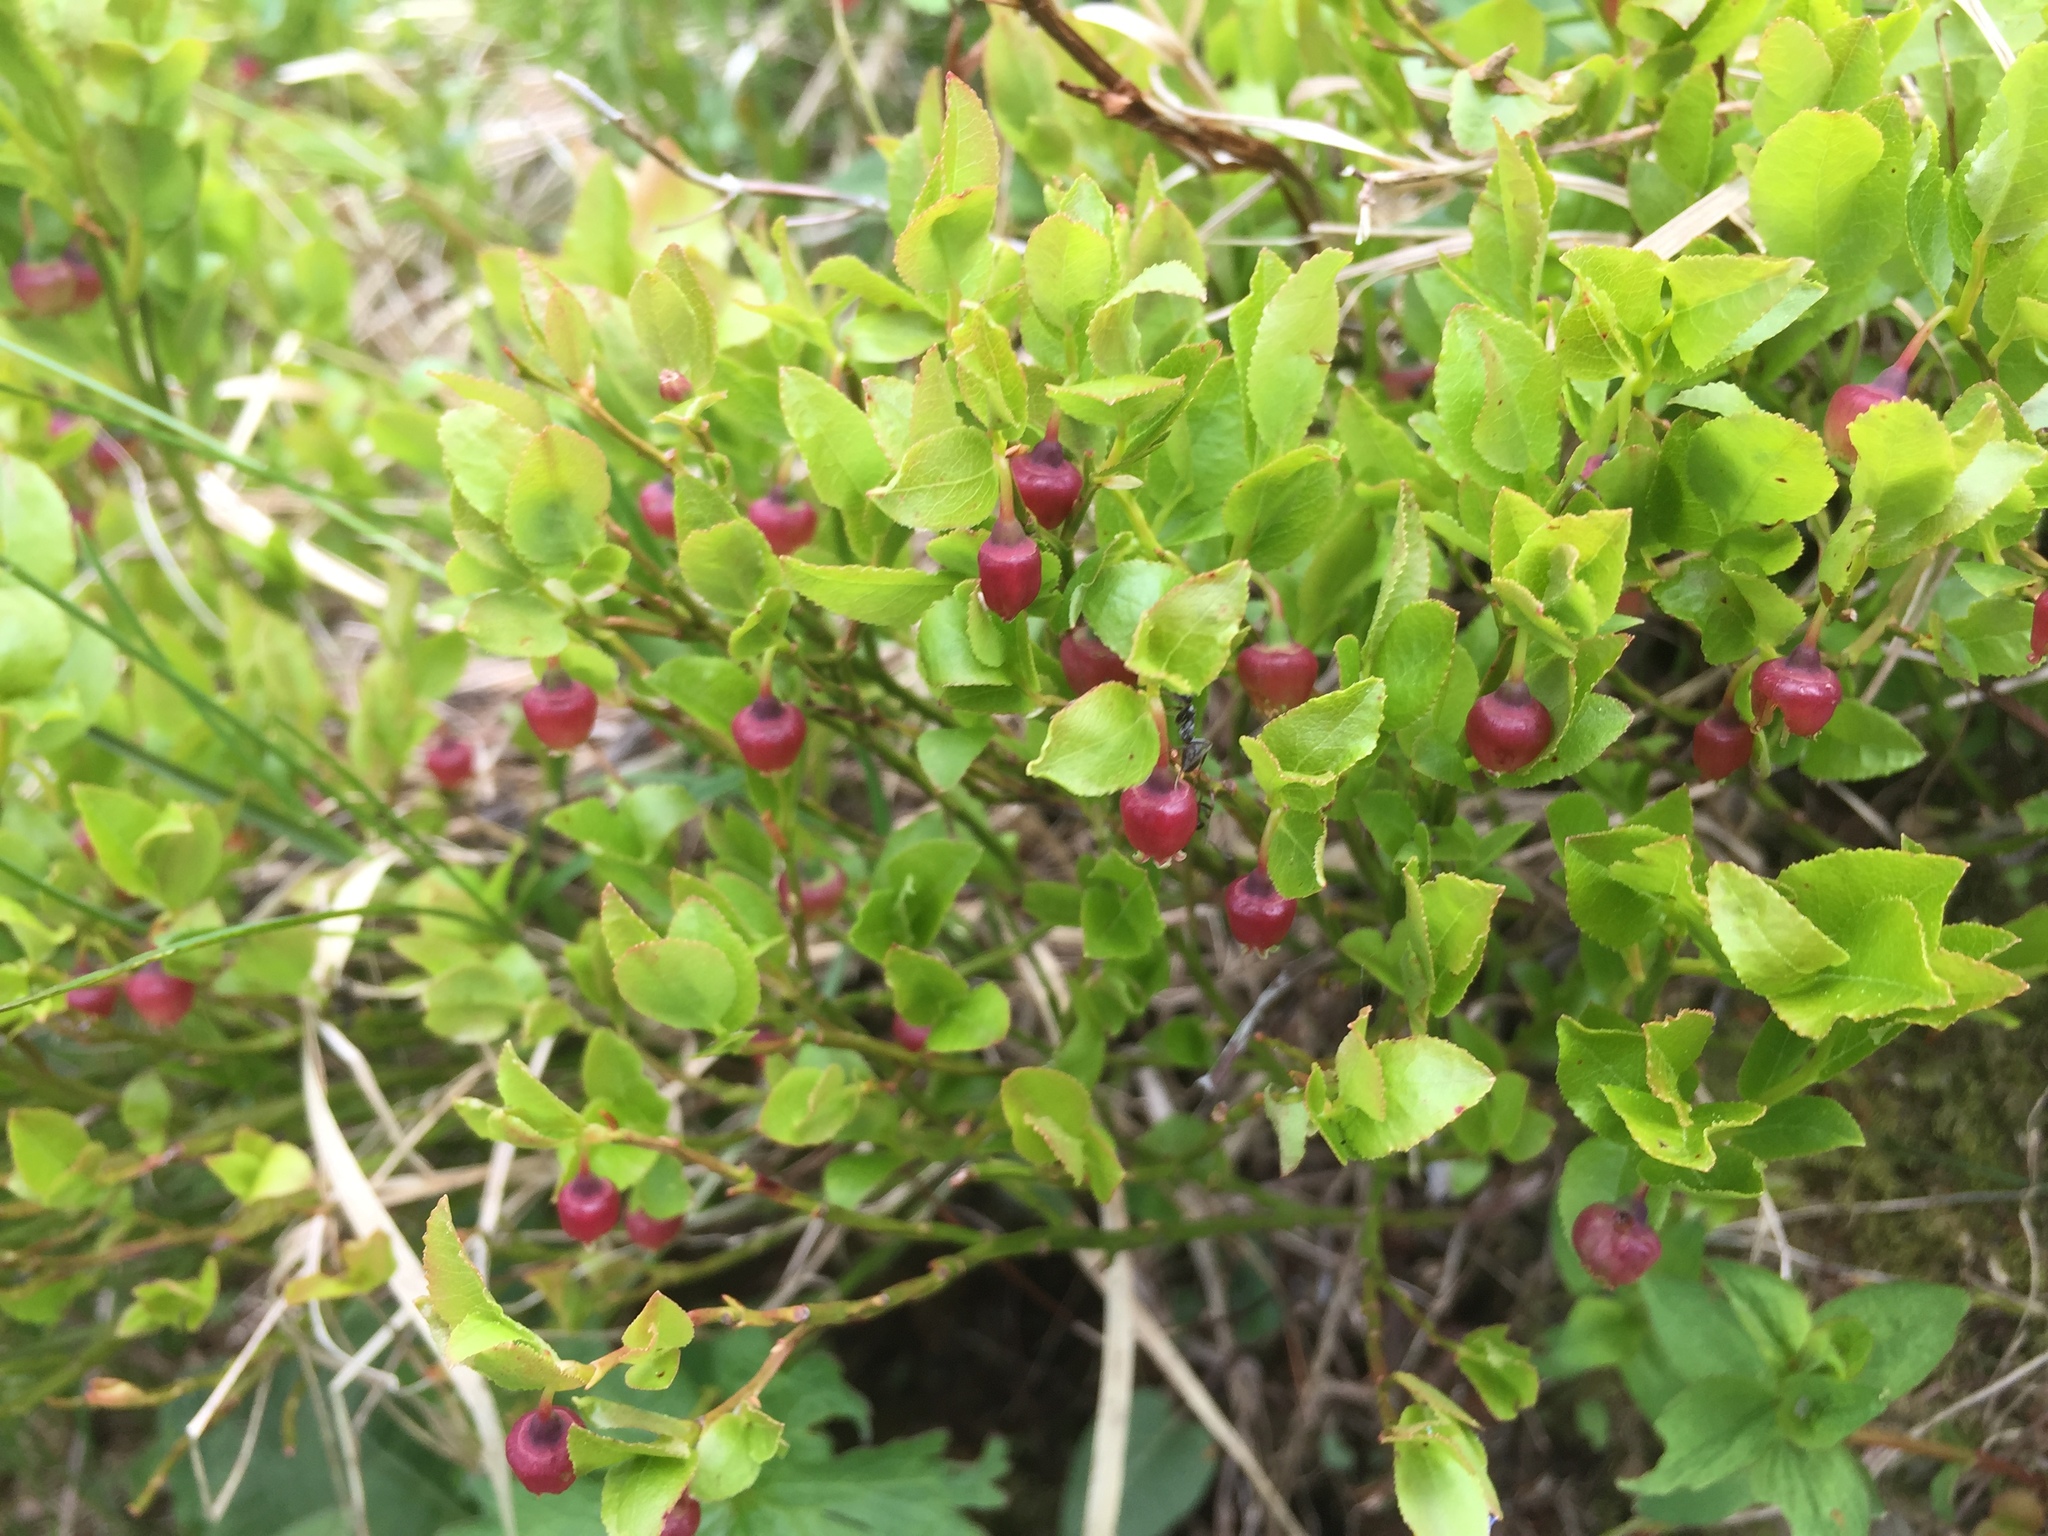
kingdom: Plantae
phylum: Tracheophyta
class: Magnoliopsida
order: Ericales
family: Ericaceae
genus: Vaccinium
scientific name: Vaccinium myrtillus
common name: Bilberry
